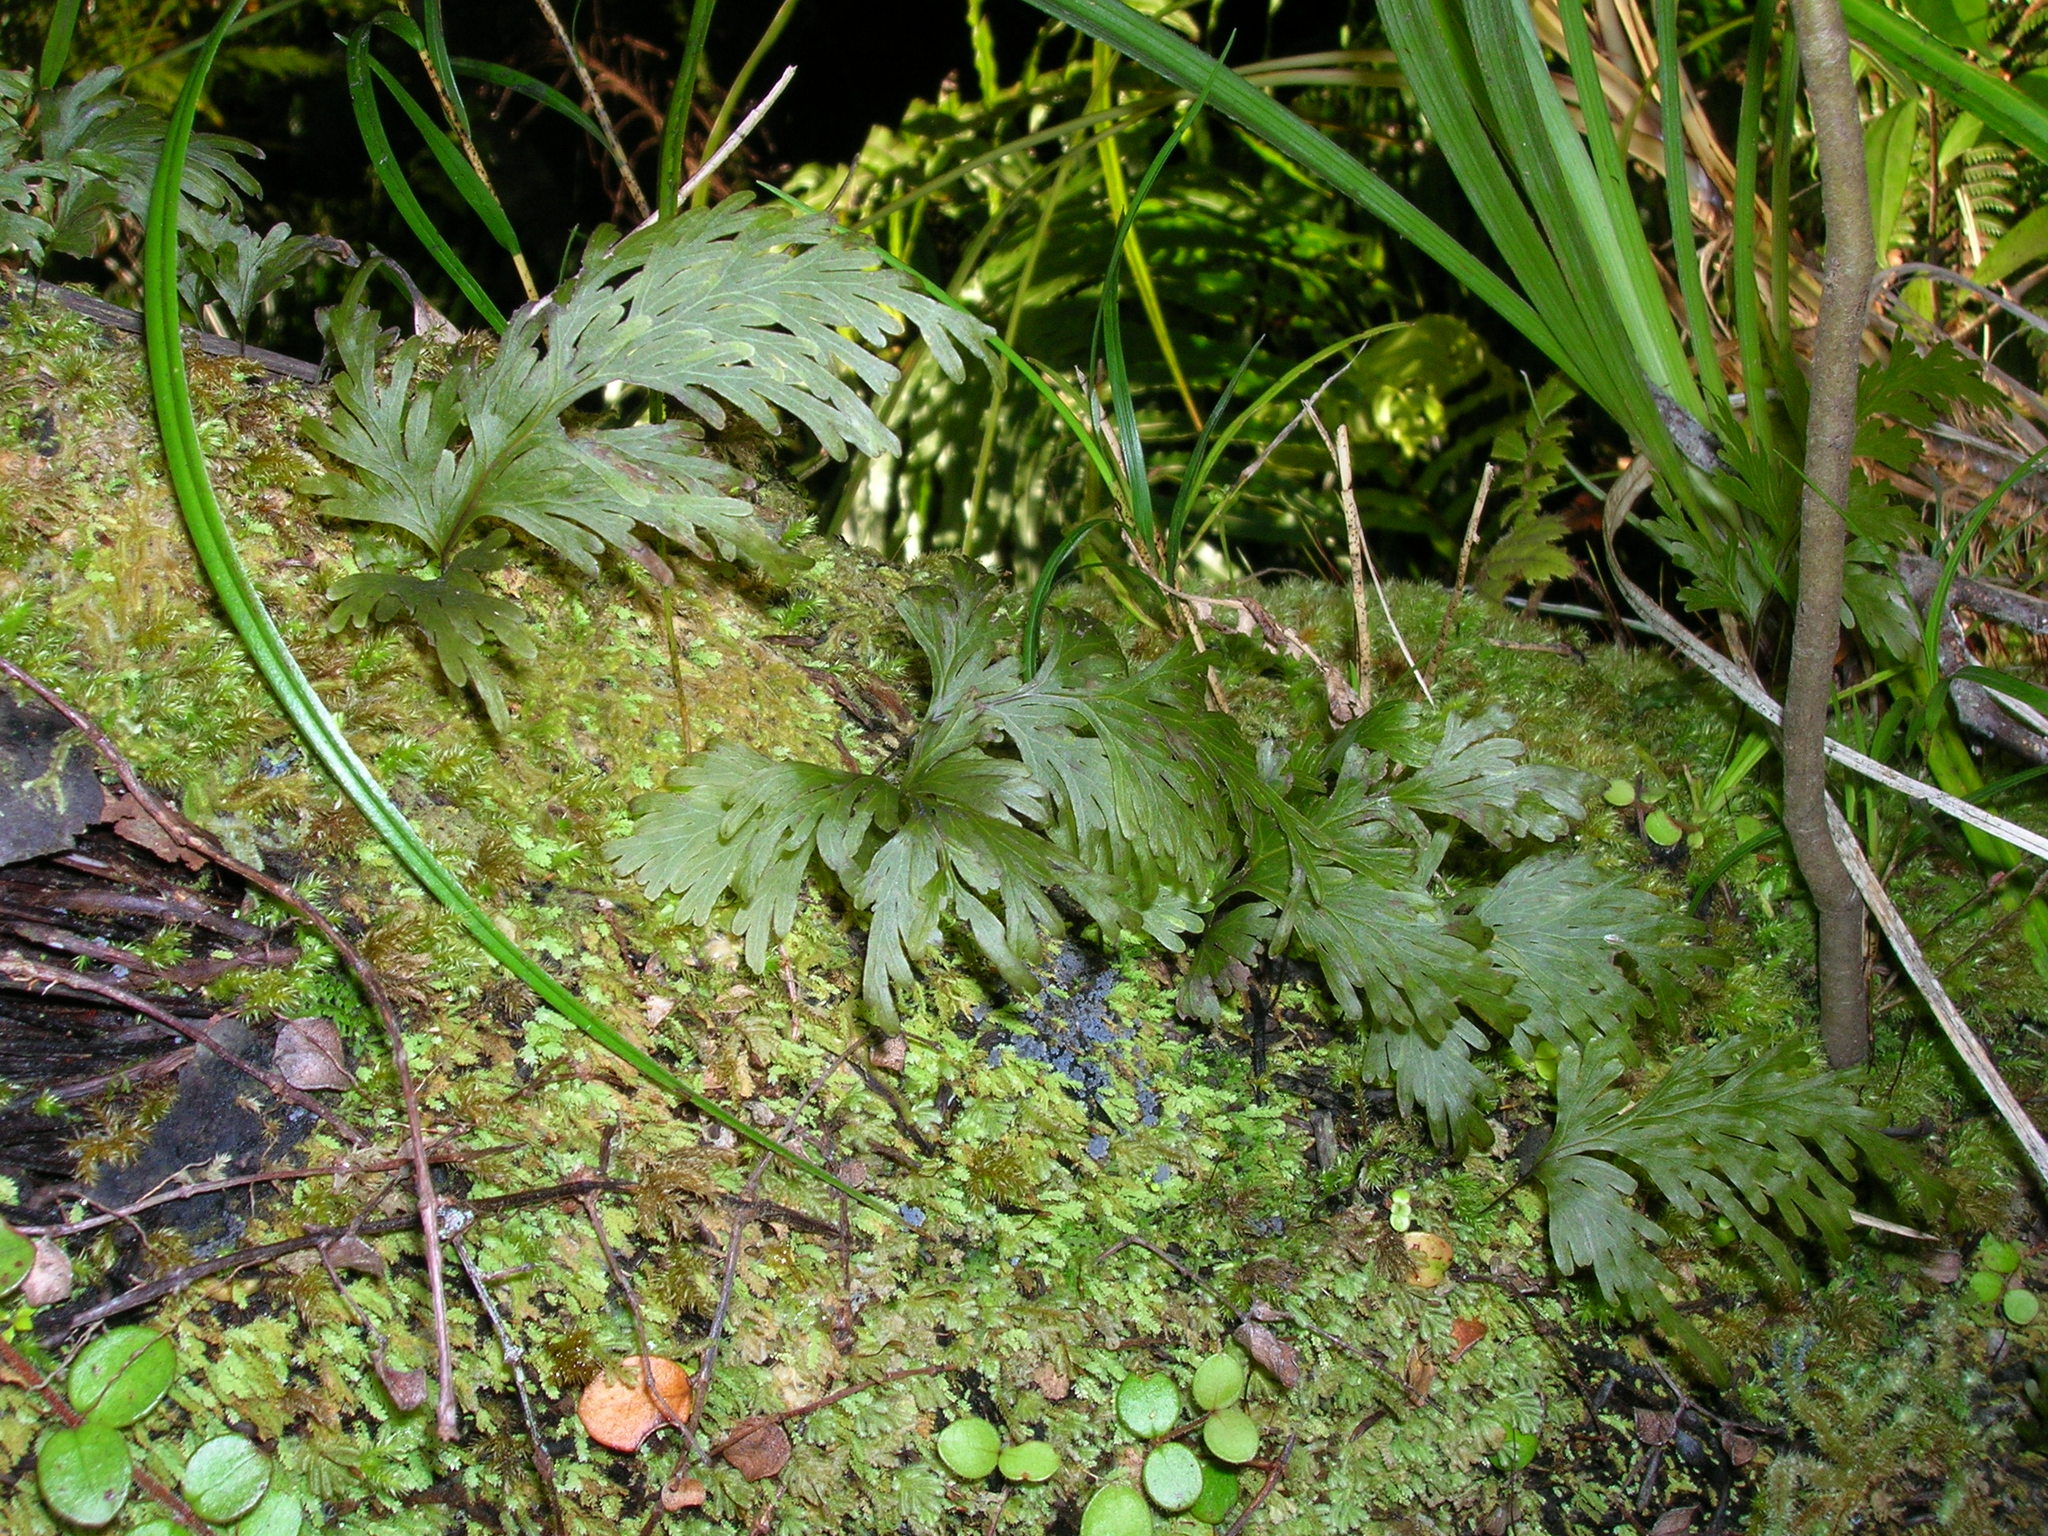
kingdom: Plantae
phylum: Tracheophyta
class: Polypodiopsida
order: Hymenophyllales
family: Hymenophyllaceae
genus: Hymenophyllum
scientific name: Hymenophyllum dilatatum
